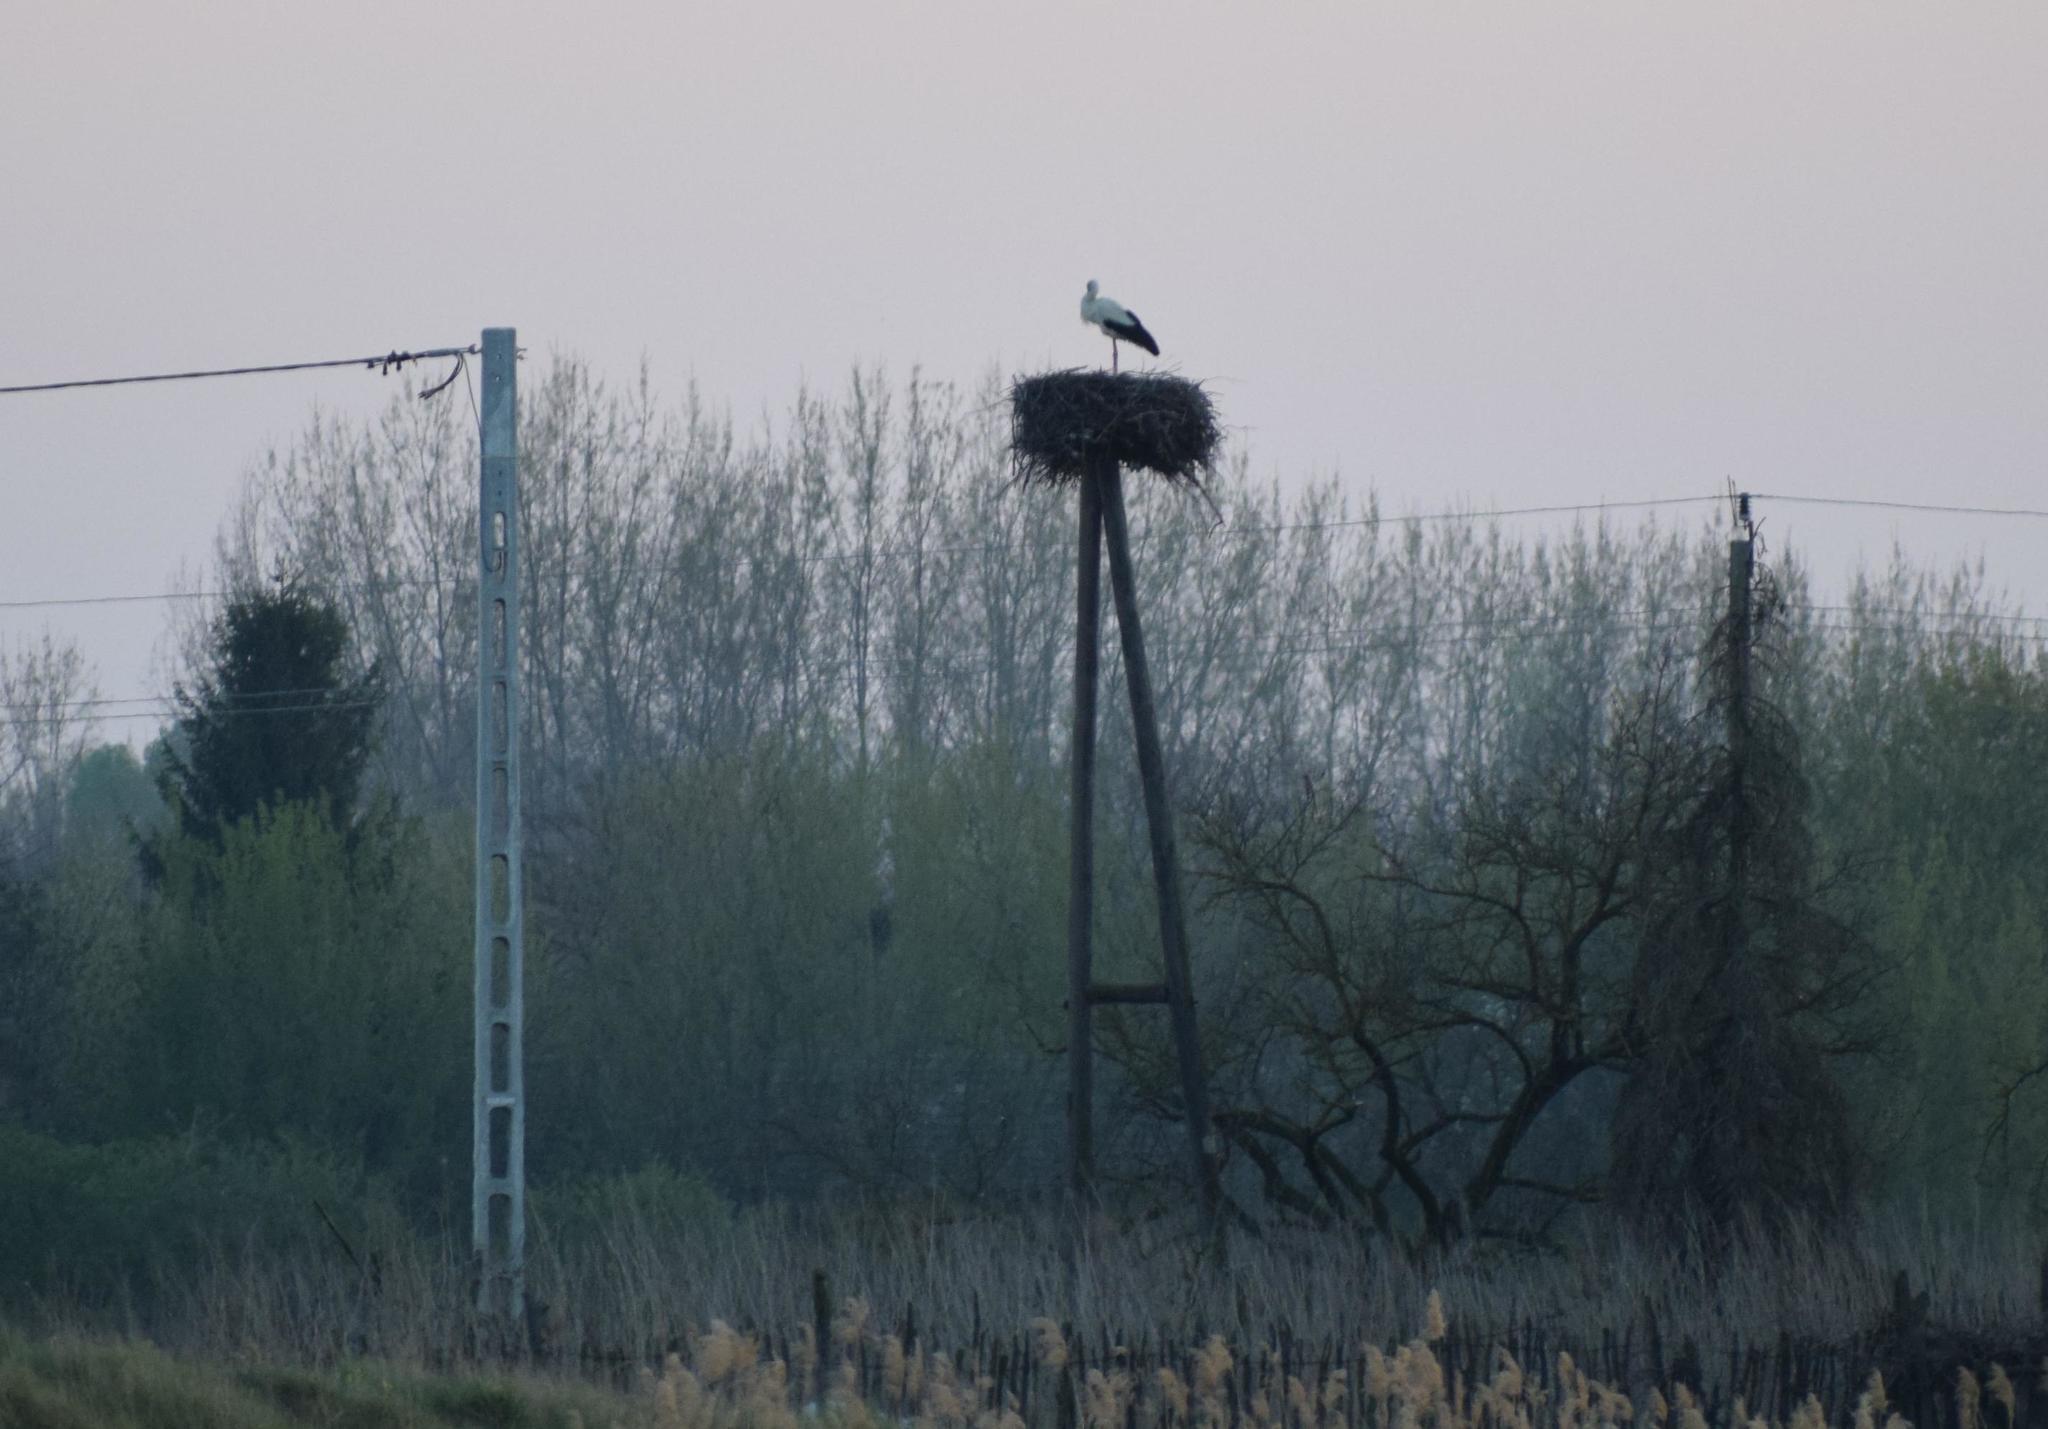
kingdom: Animalia
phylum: Chordata
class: Aves
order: Ciconiiformes
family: Ciconiidae
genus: Ciconia
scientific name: Ciconia ciconia
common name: White stork
